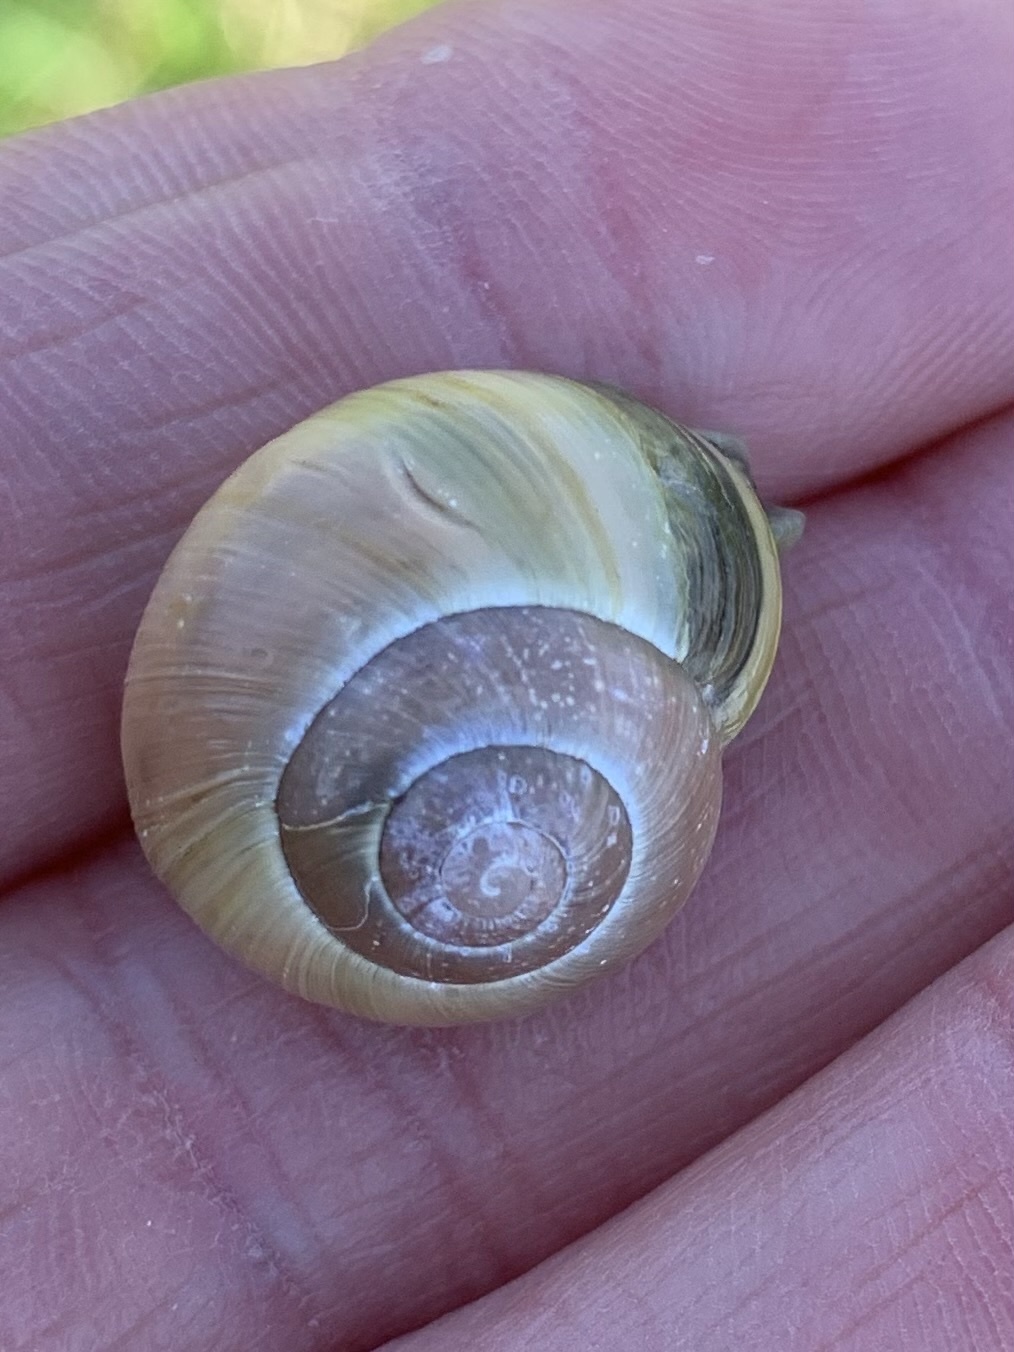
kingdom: Animalia
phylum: Mollusca
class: Gastropoda
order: Stylommatophora
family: Helicidae
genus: Cepaea
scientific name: Cepaea
